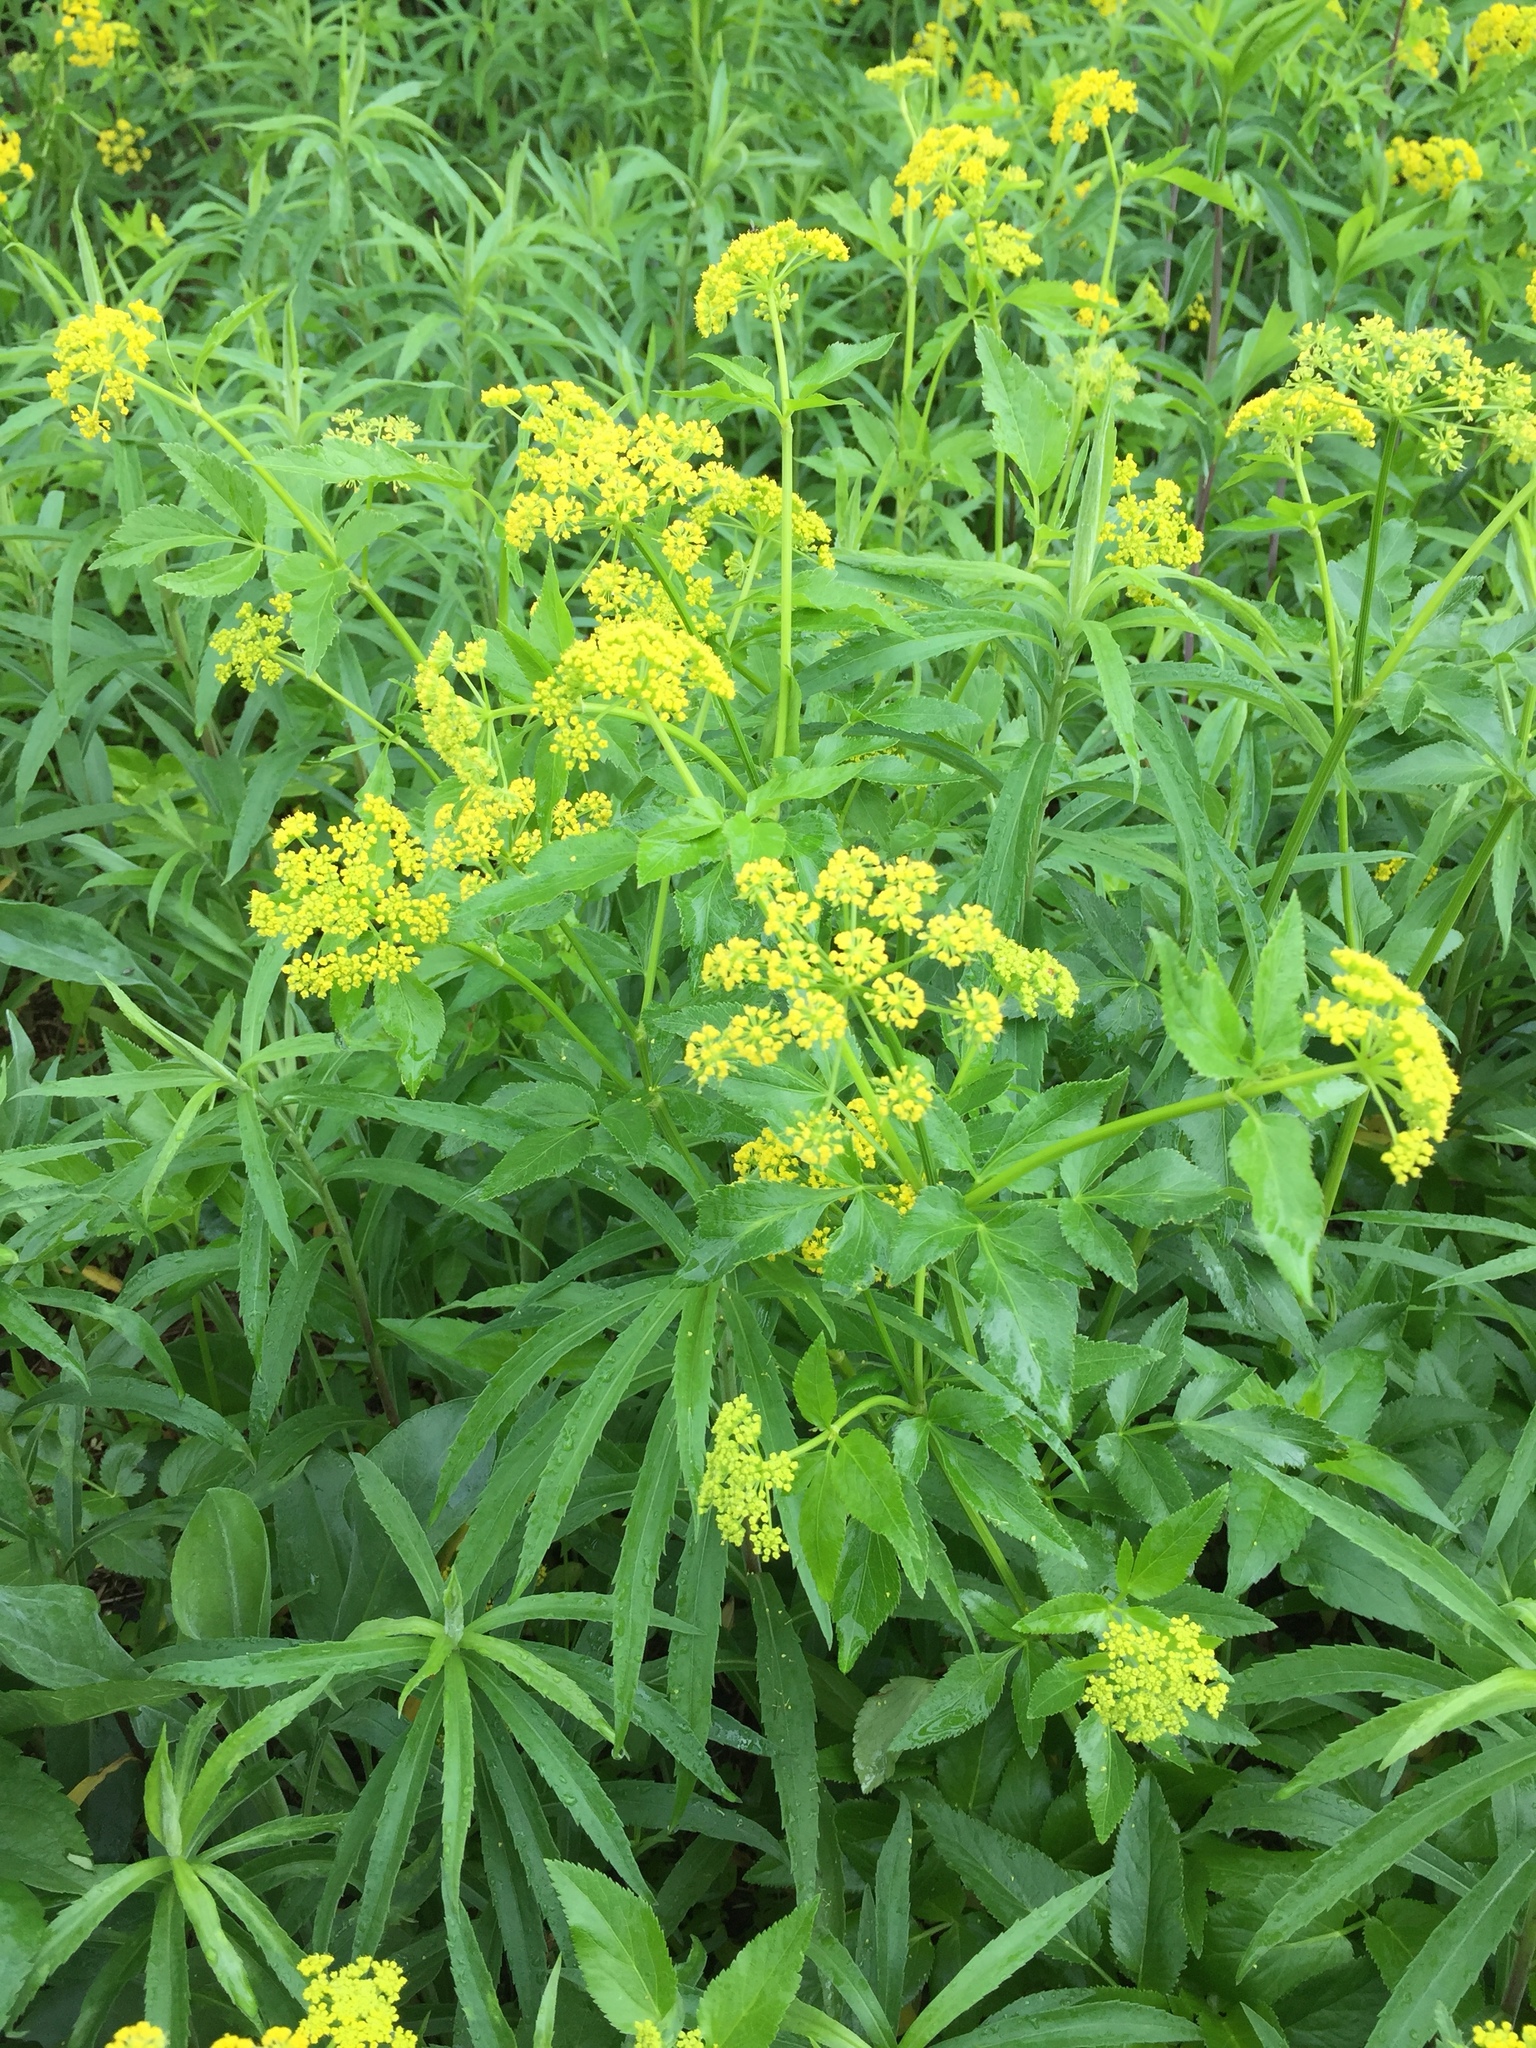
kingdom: Plantae
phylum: Tracheophyta
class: Magnoliopsida
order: Apiales
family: Apiaceae
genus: Zizia
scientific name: Zizia aurea
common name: Golden alexanders
